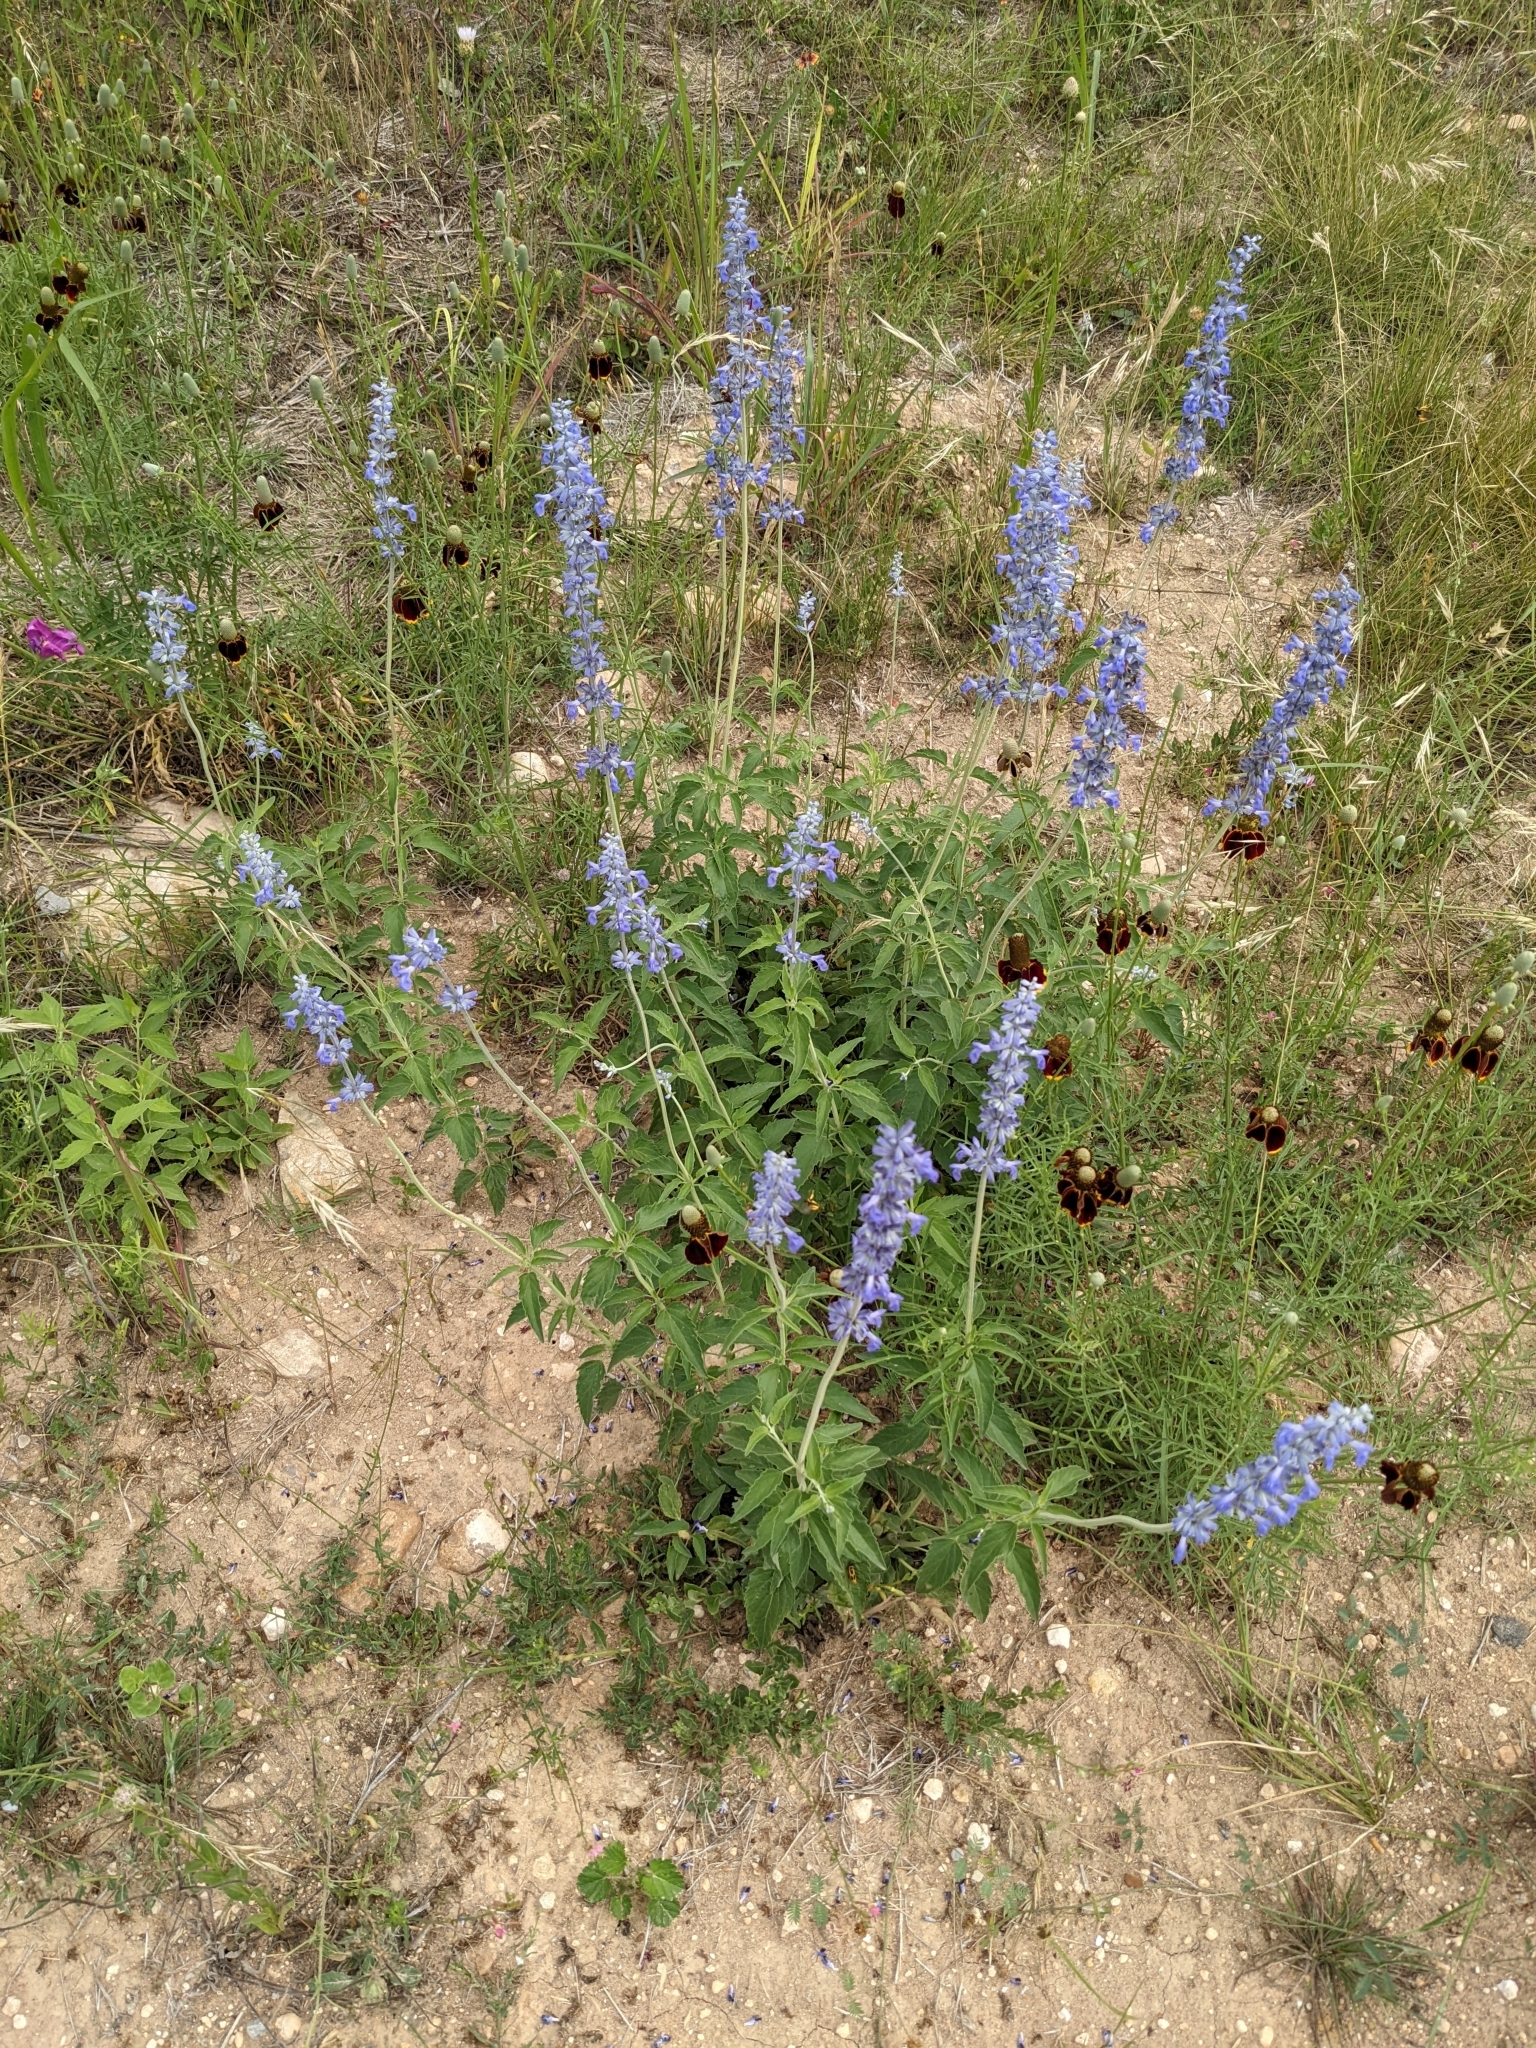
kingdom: Plantae
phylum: Tracheophyta
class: Magnoliopsida
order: Lamiales
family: Lamiaceae
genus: Salvia
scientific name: Salvia farinacea
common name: Mealy sage
